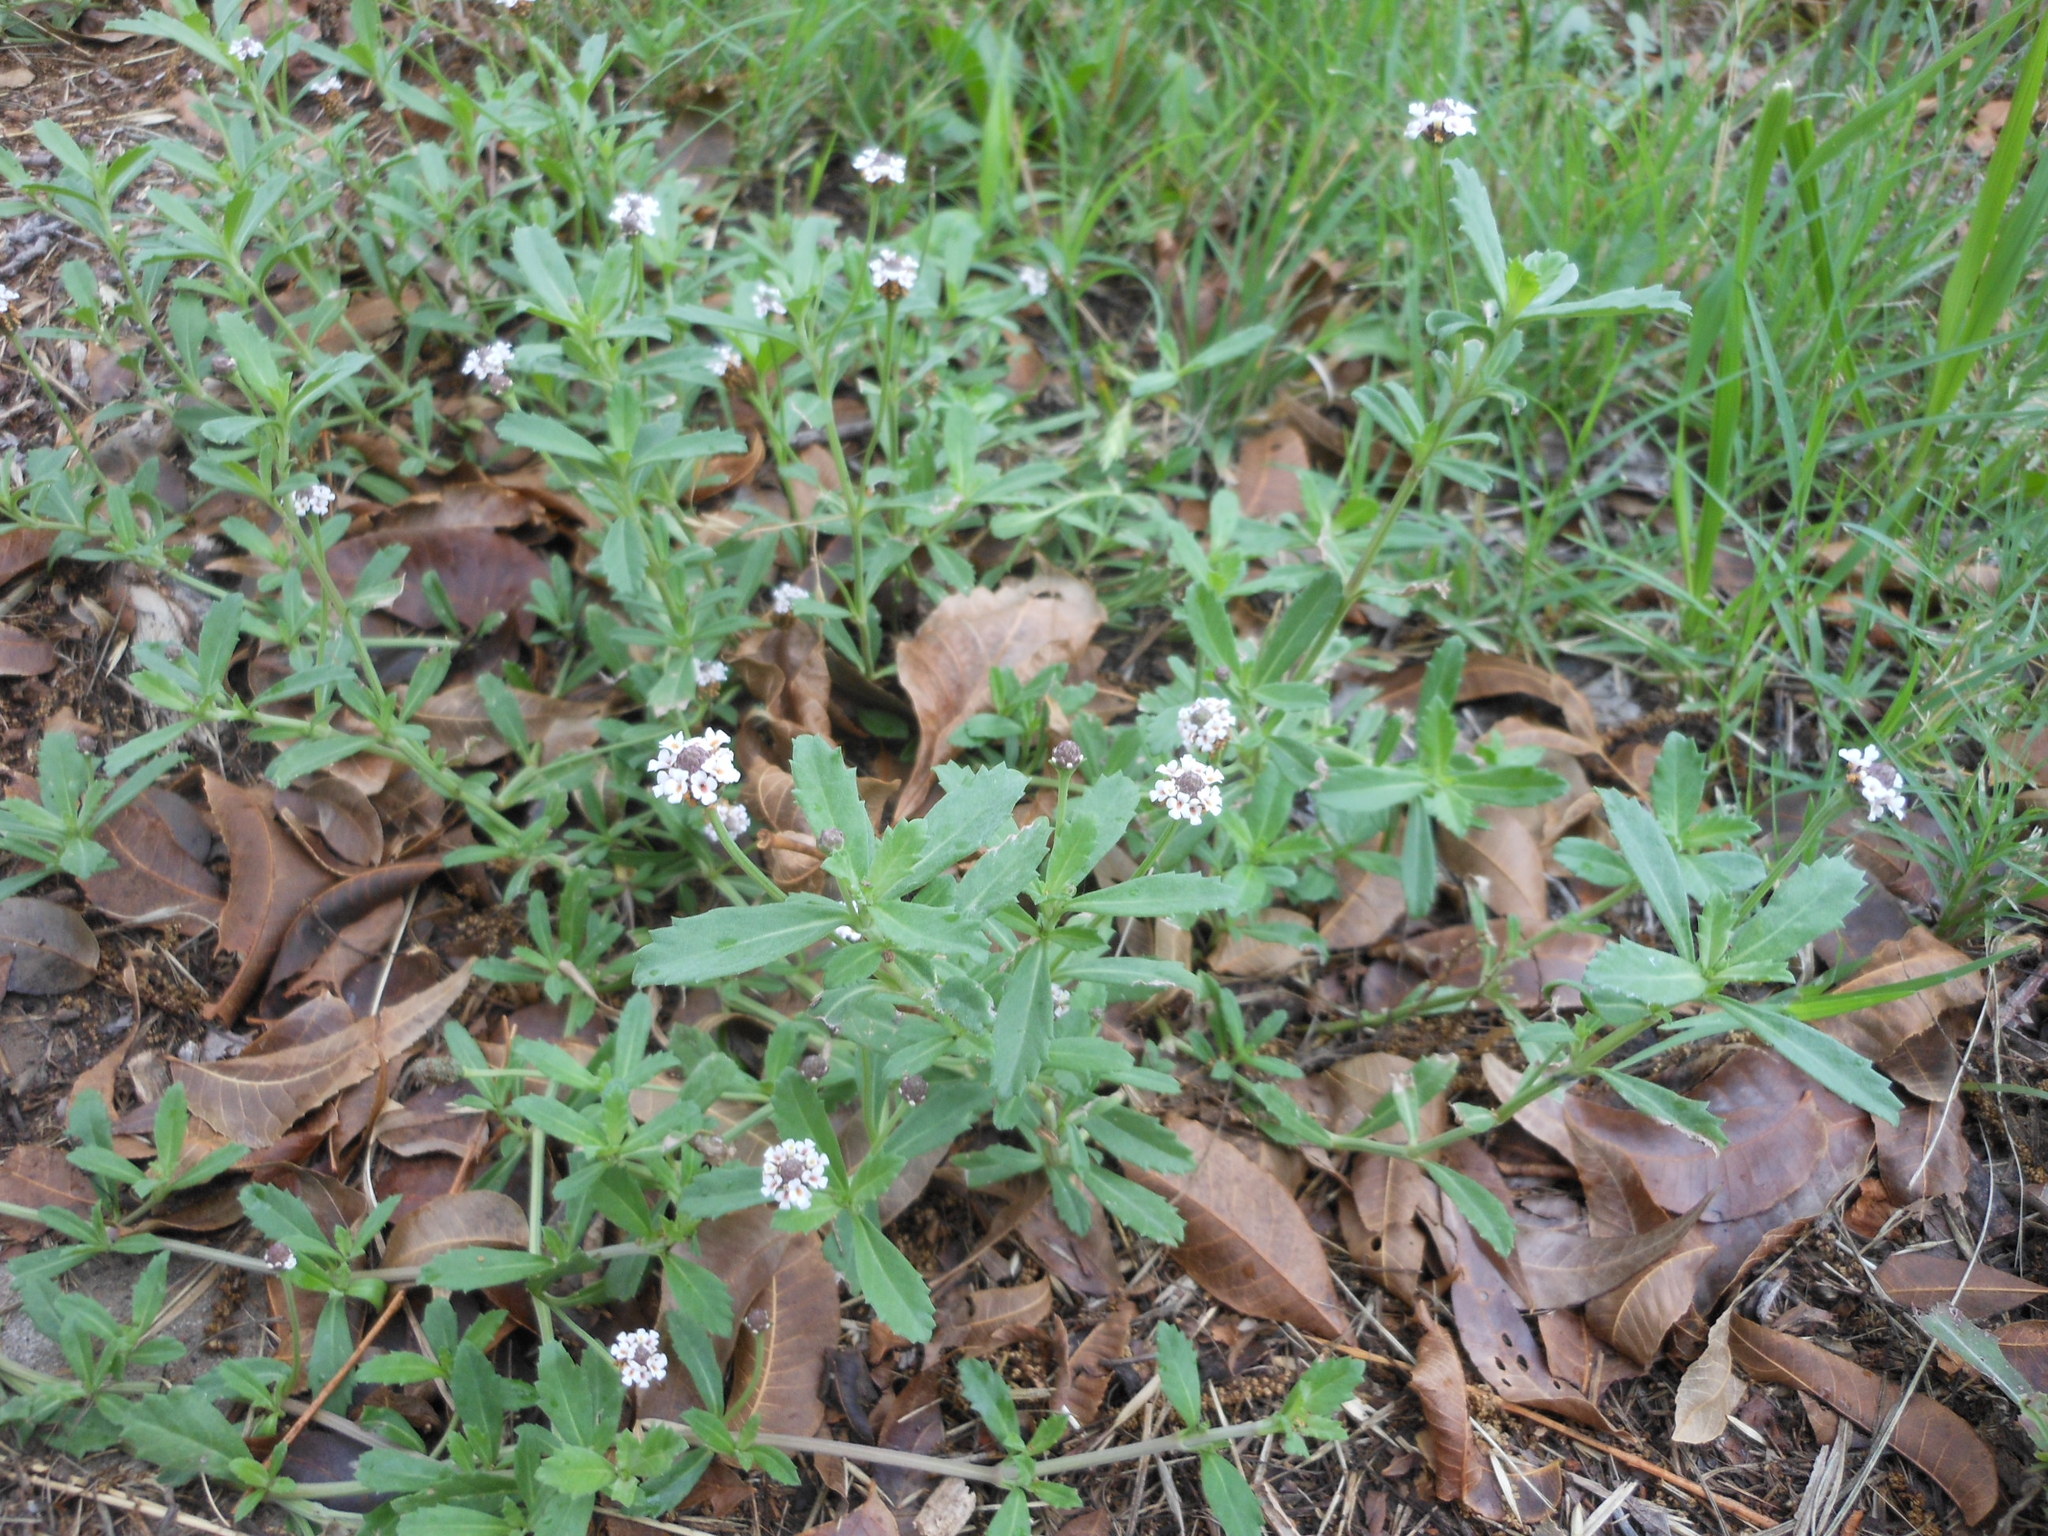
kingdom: Plantae
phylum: Tracheophyta
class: Magnoliopsida
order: Lamiales
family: Verbenaceae
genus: Phyla
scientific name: Phyla nodiflora
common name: Frogfruit
